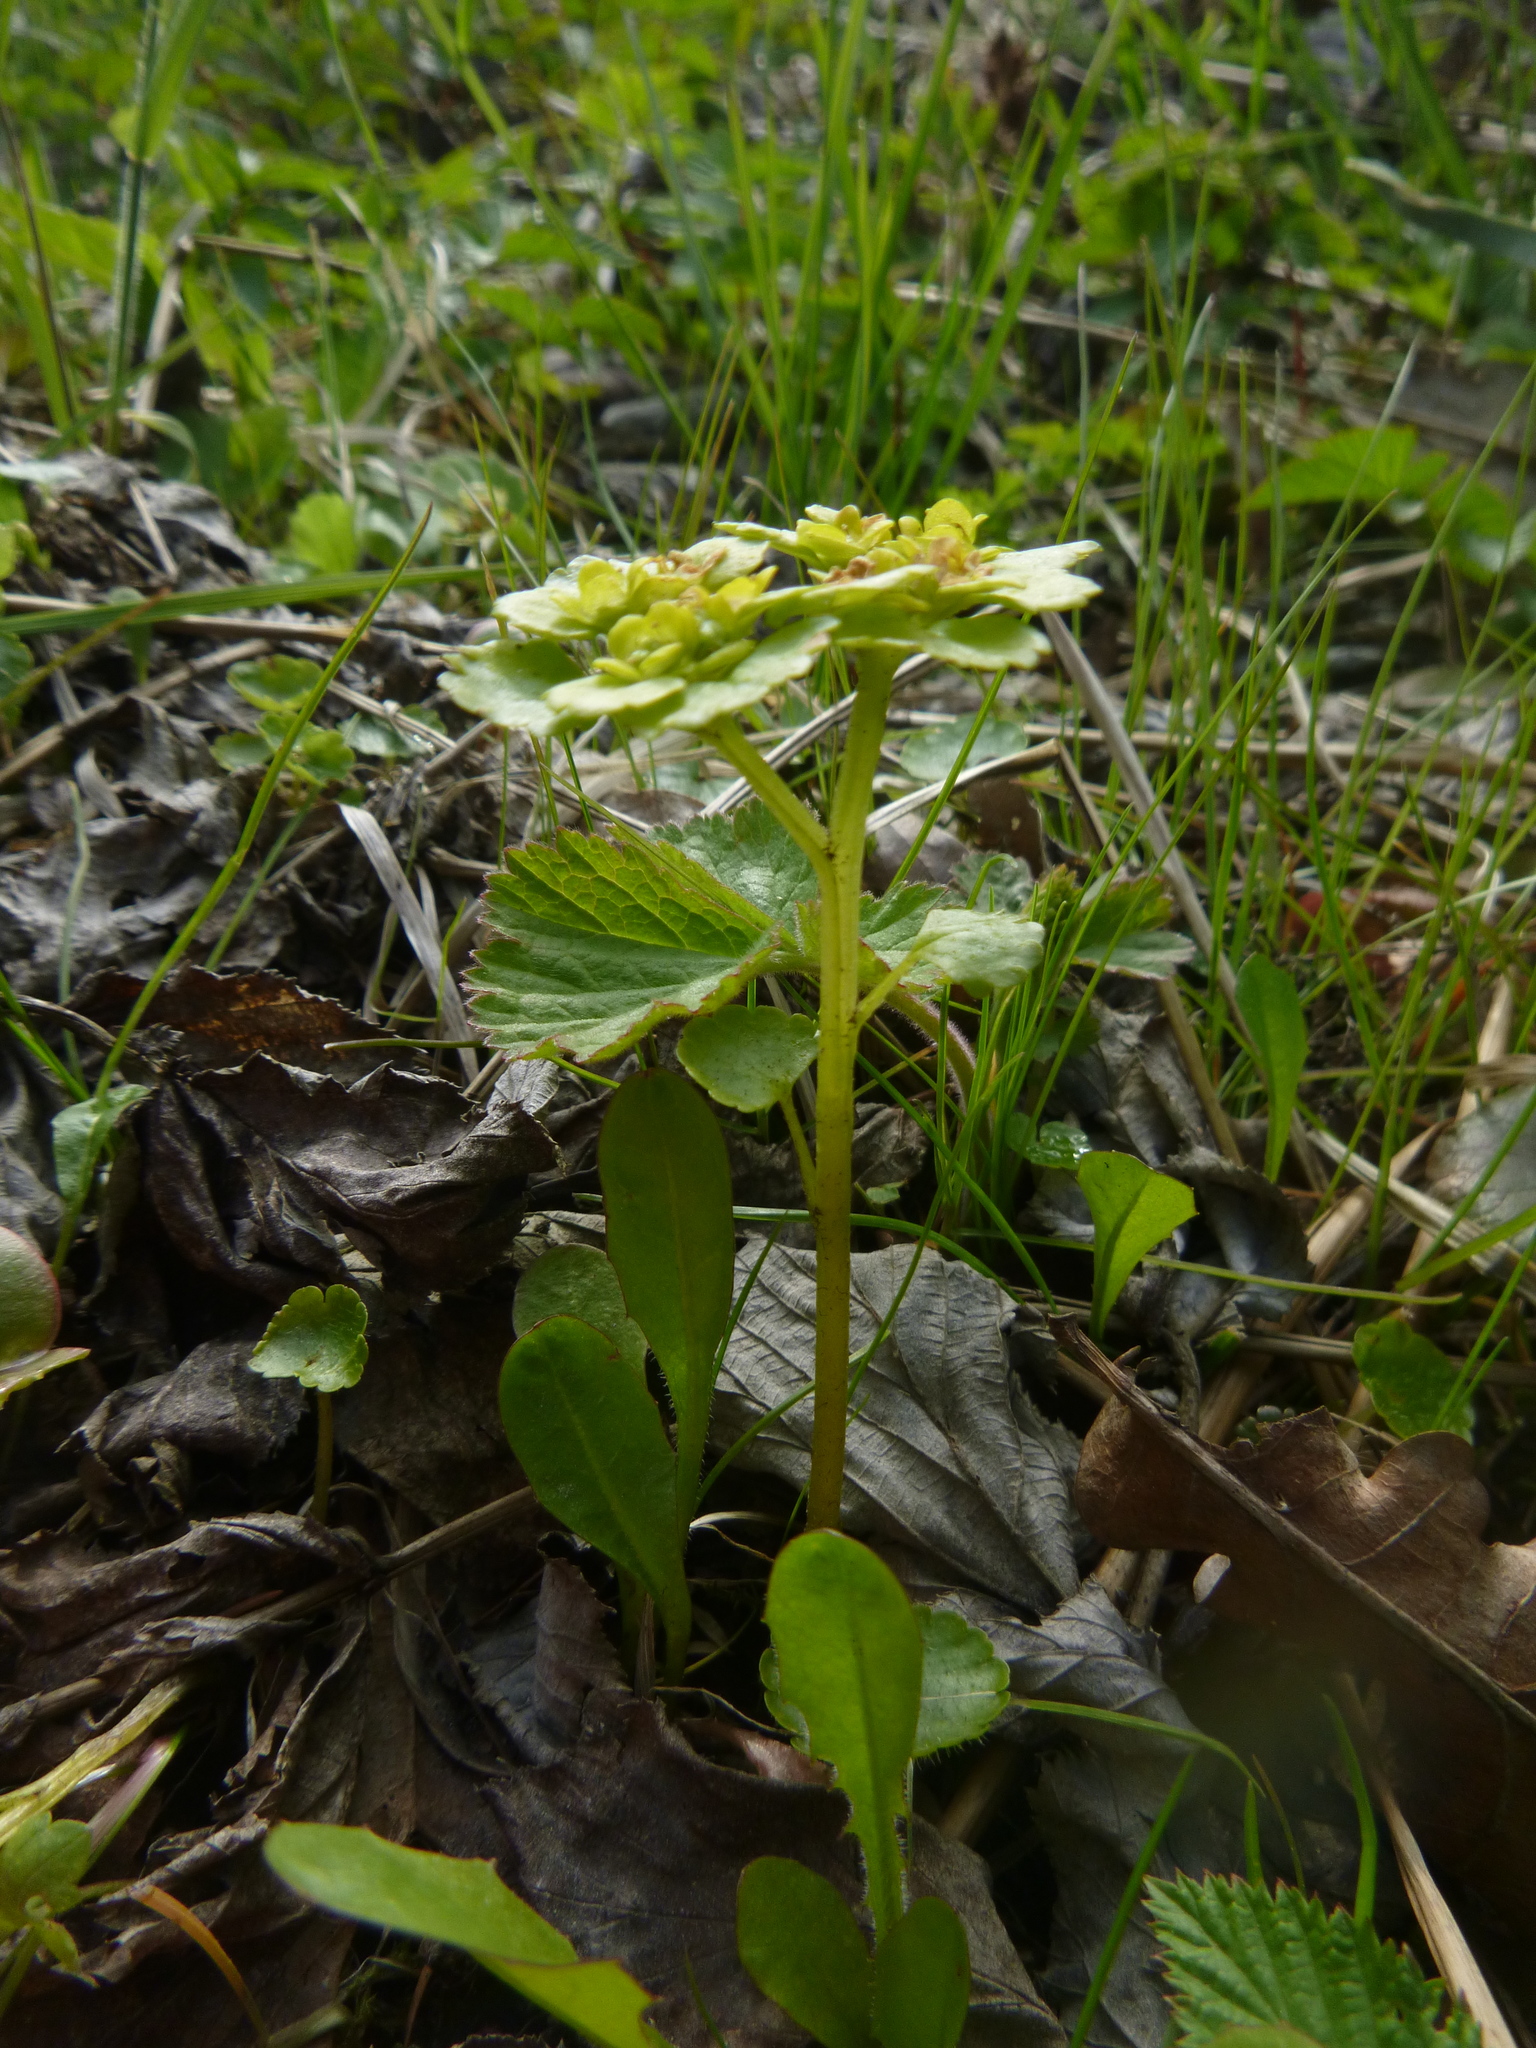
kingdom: Plantae
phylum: Tracheophyta
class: Magnoliopsida
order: Saxifragales
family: Saxifragaceae
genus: Chrysosplenium
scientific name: Chrysosplenium alternifolium
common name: Alternate-leaved golden-saxifrage
